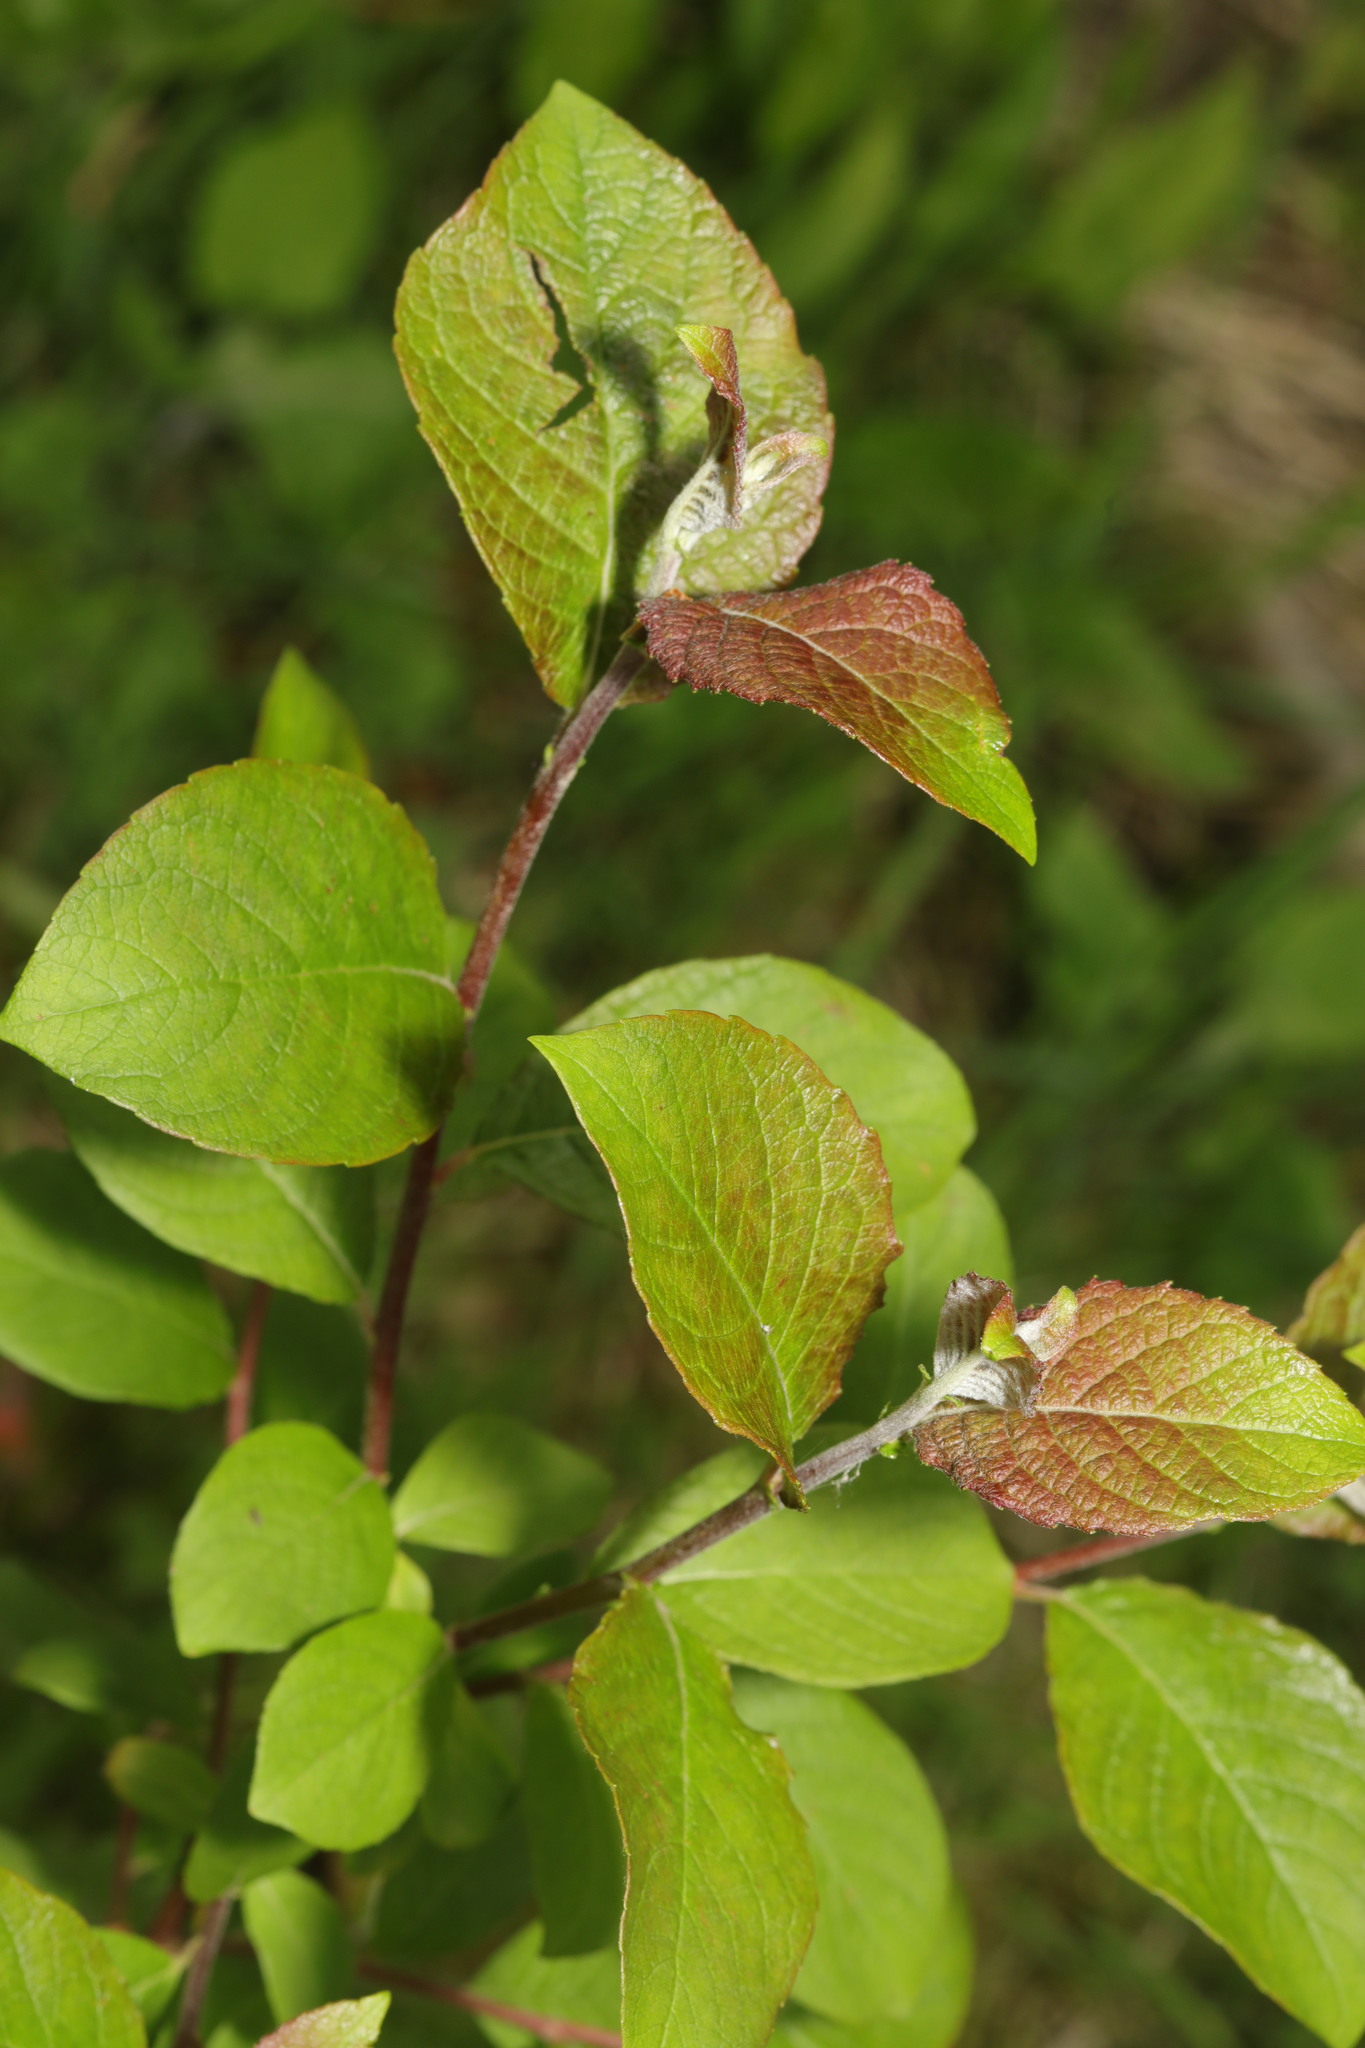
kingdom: Plantae
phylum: Tracheophyta
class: Magnoliopsida
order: Malpighiales
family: Salicaceae
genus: Salix
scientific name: Salix caprea
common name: Goat willow
